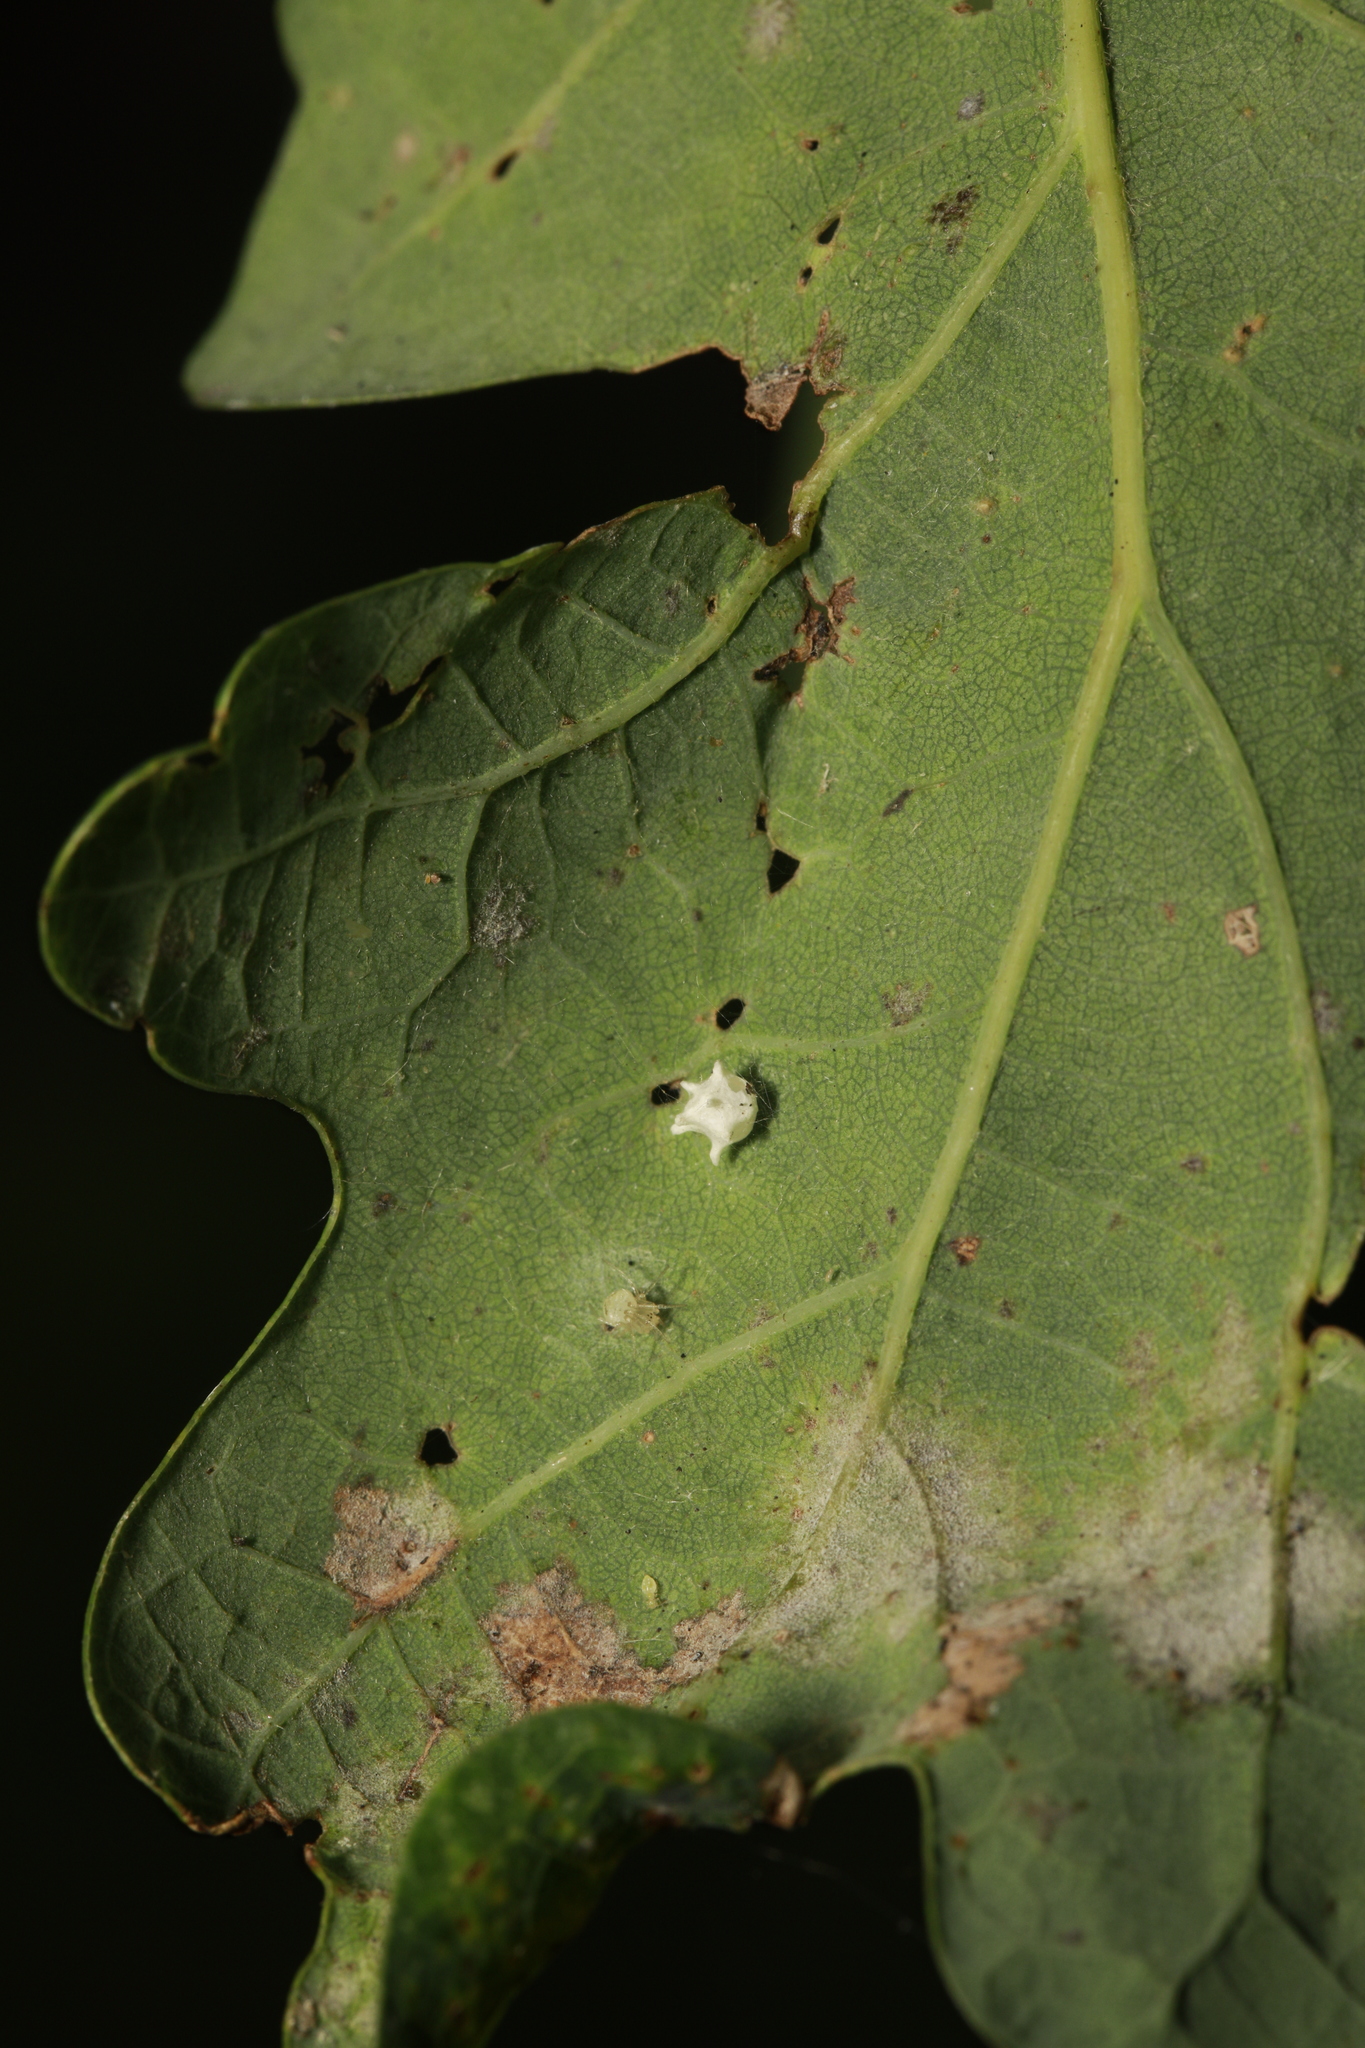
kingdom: Animalia
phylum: Arthropoda
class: Arachnida
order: Araneae
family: Theridiidae
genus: Paidiscura
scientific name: Paidiscura pallens
